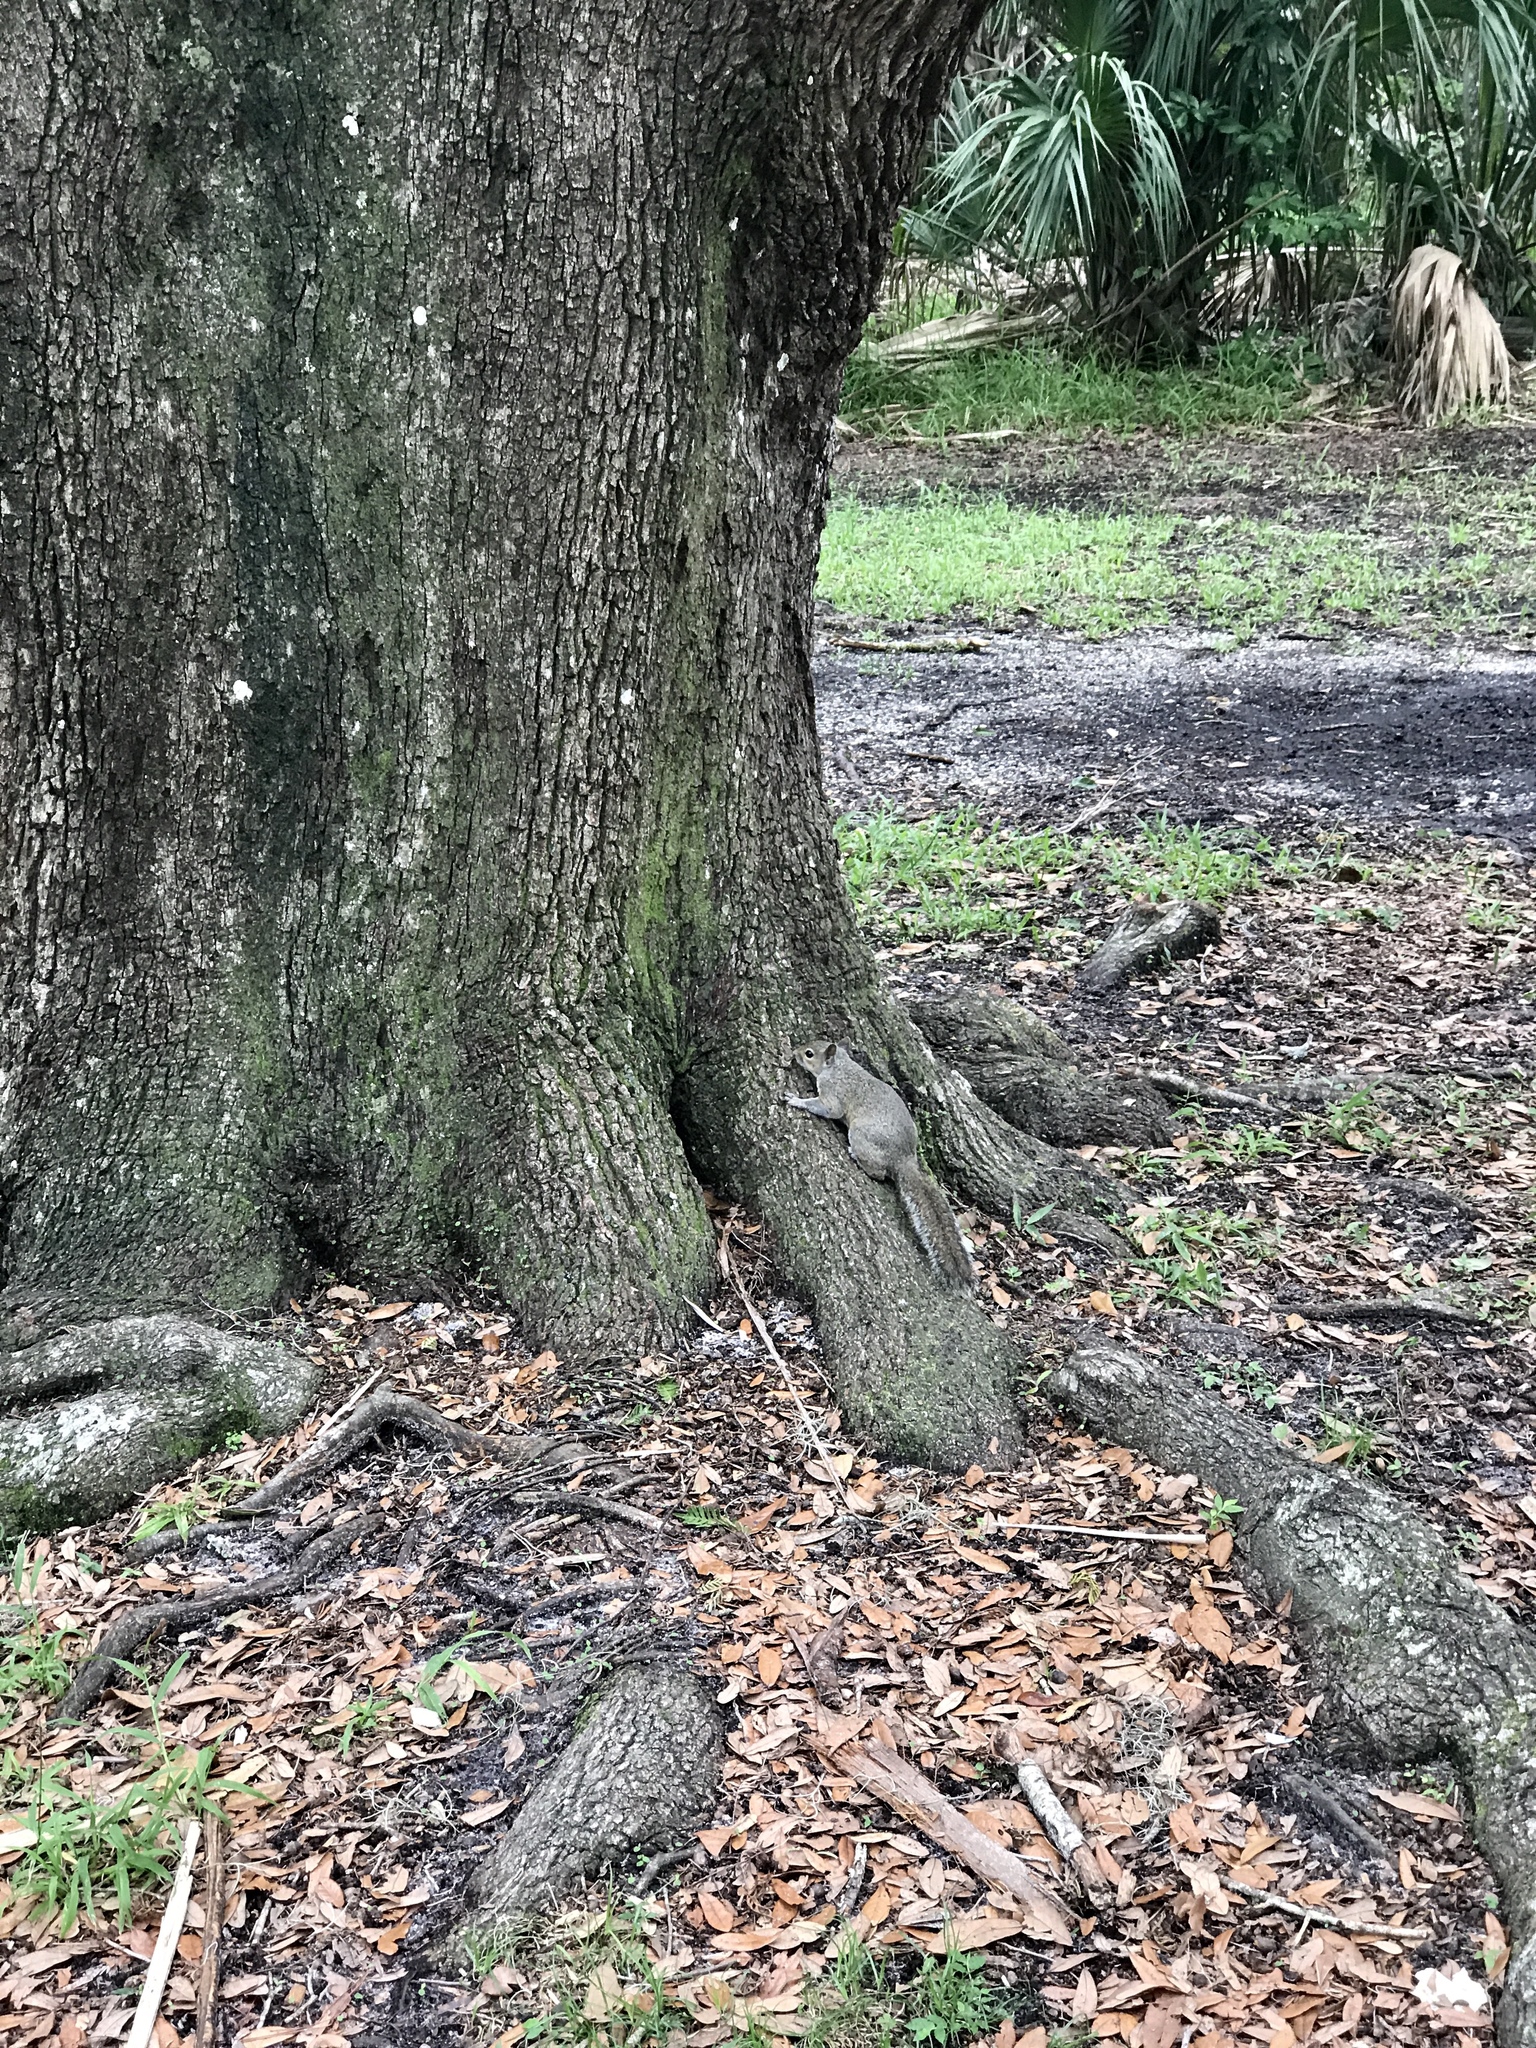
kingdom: Animalia
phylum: Chordata
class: Mammalia
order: Rodentia
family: Sciuridae
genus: Sciurus
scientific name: Sciurus carolinensis
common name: Eastern gray squirrel
